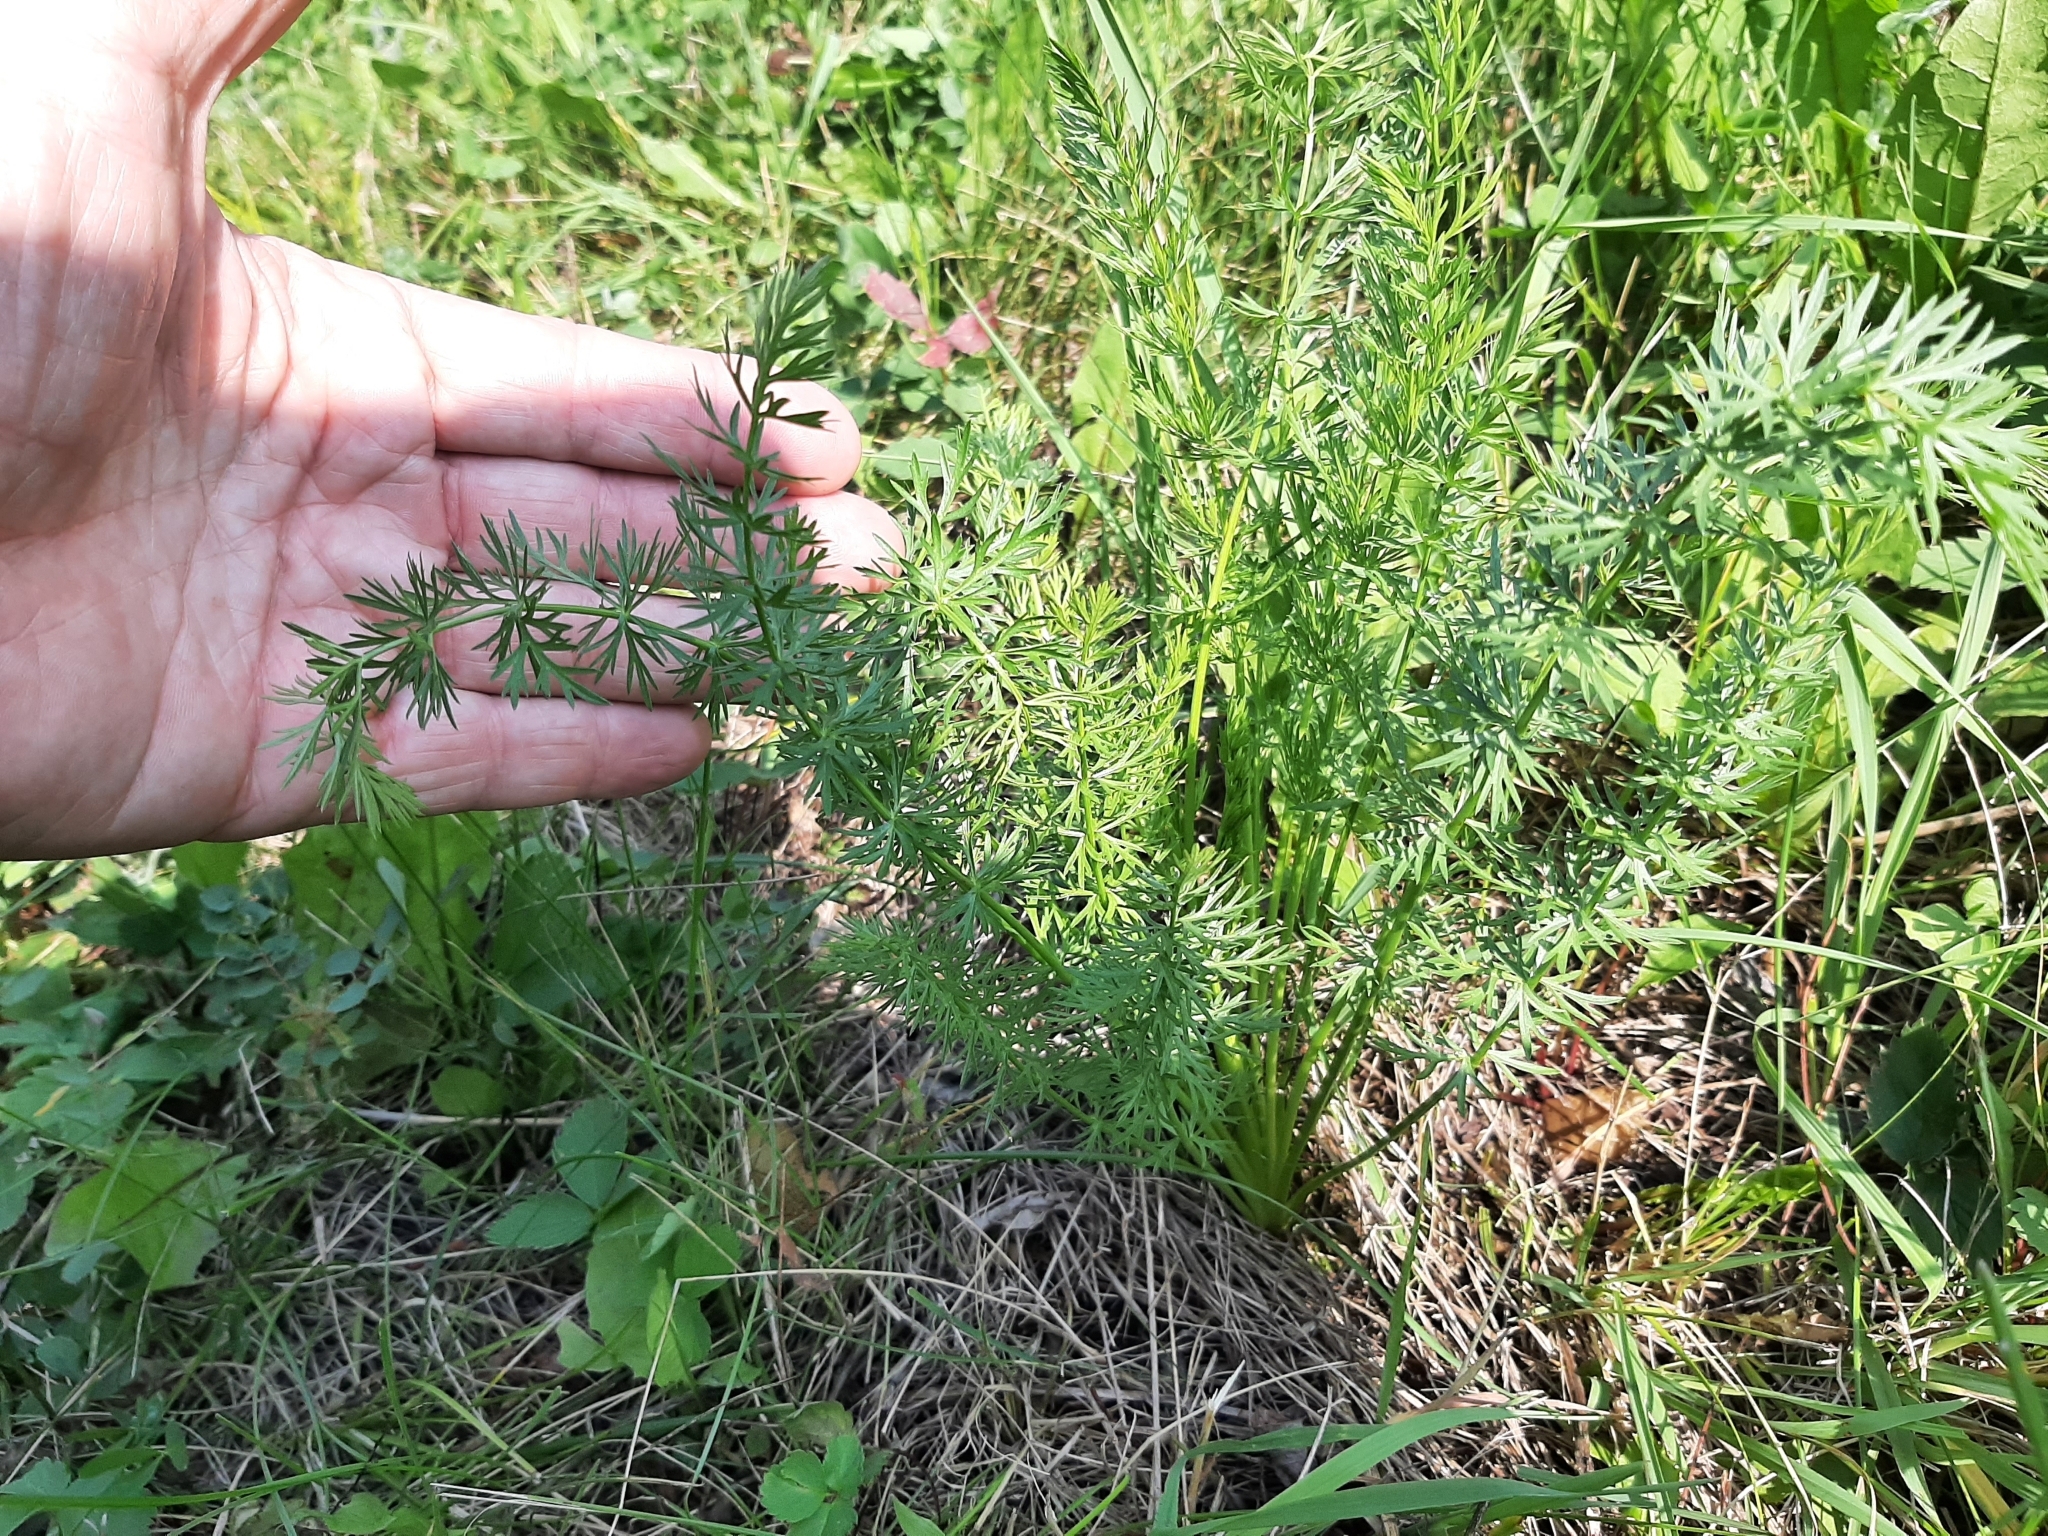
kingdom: Plantae
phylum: Tracheophyta
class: Magnoliopsida
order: Apiales
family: Apiaceae
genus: Carum
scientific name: Carum carvi
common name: Caraway
